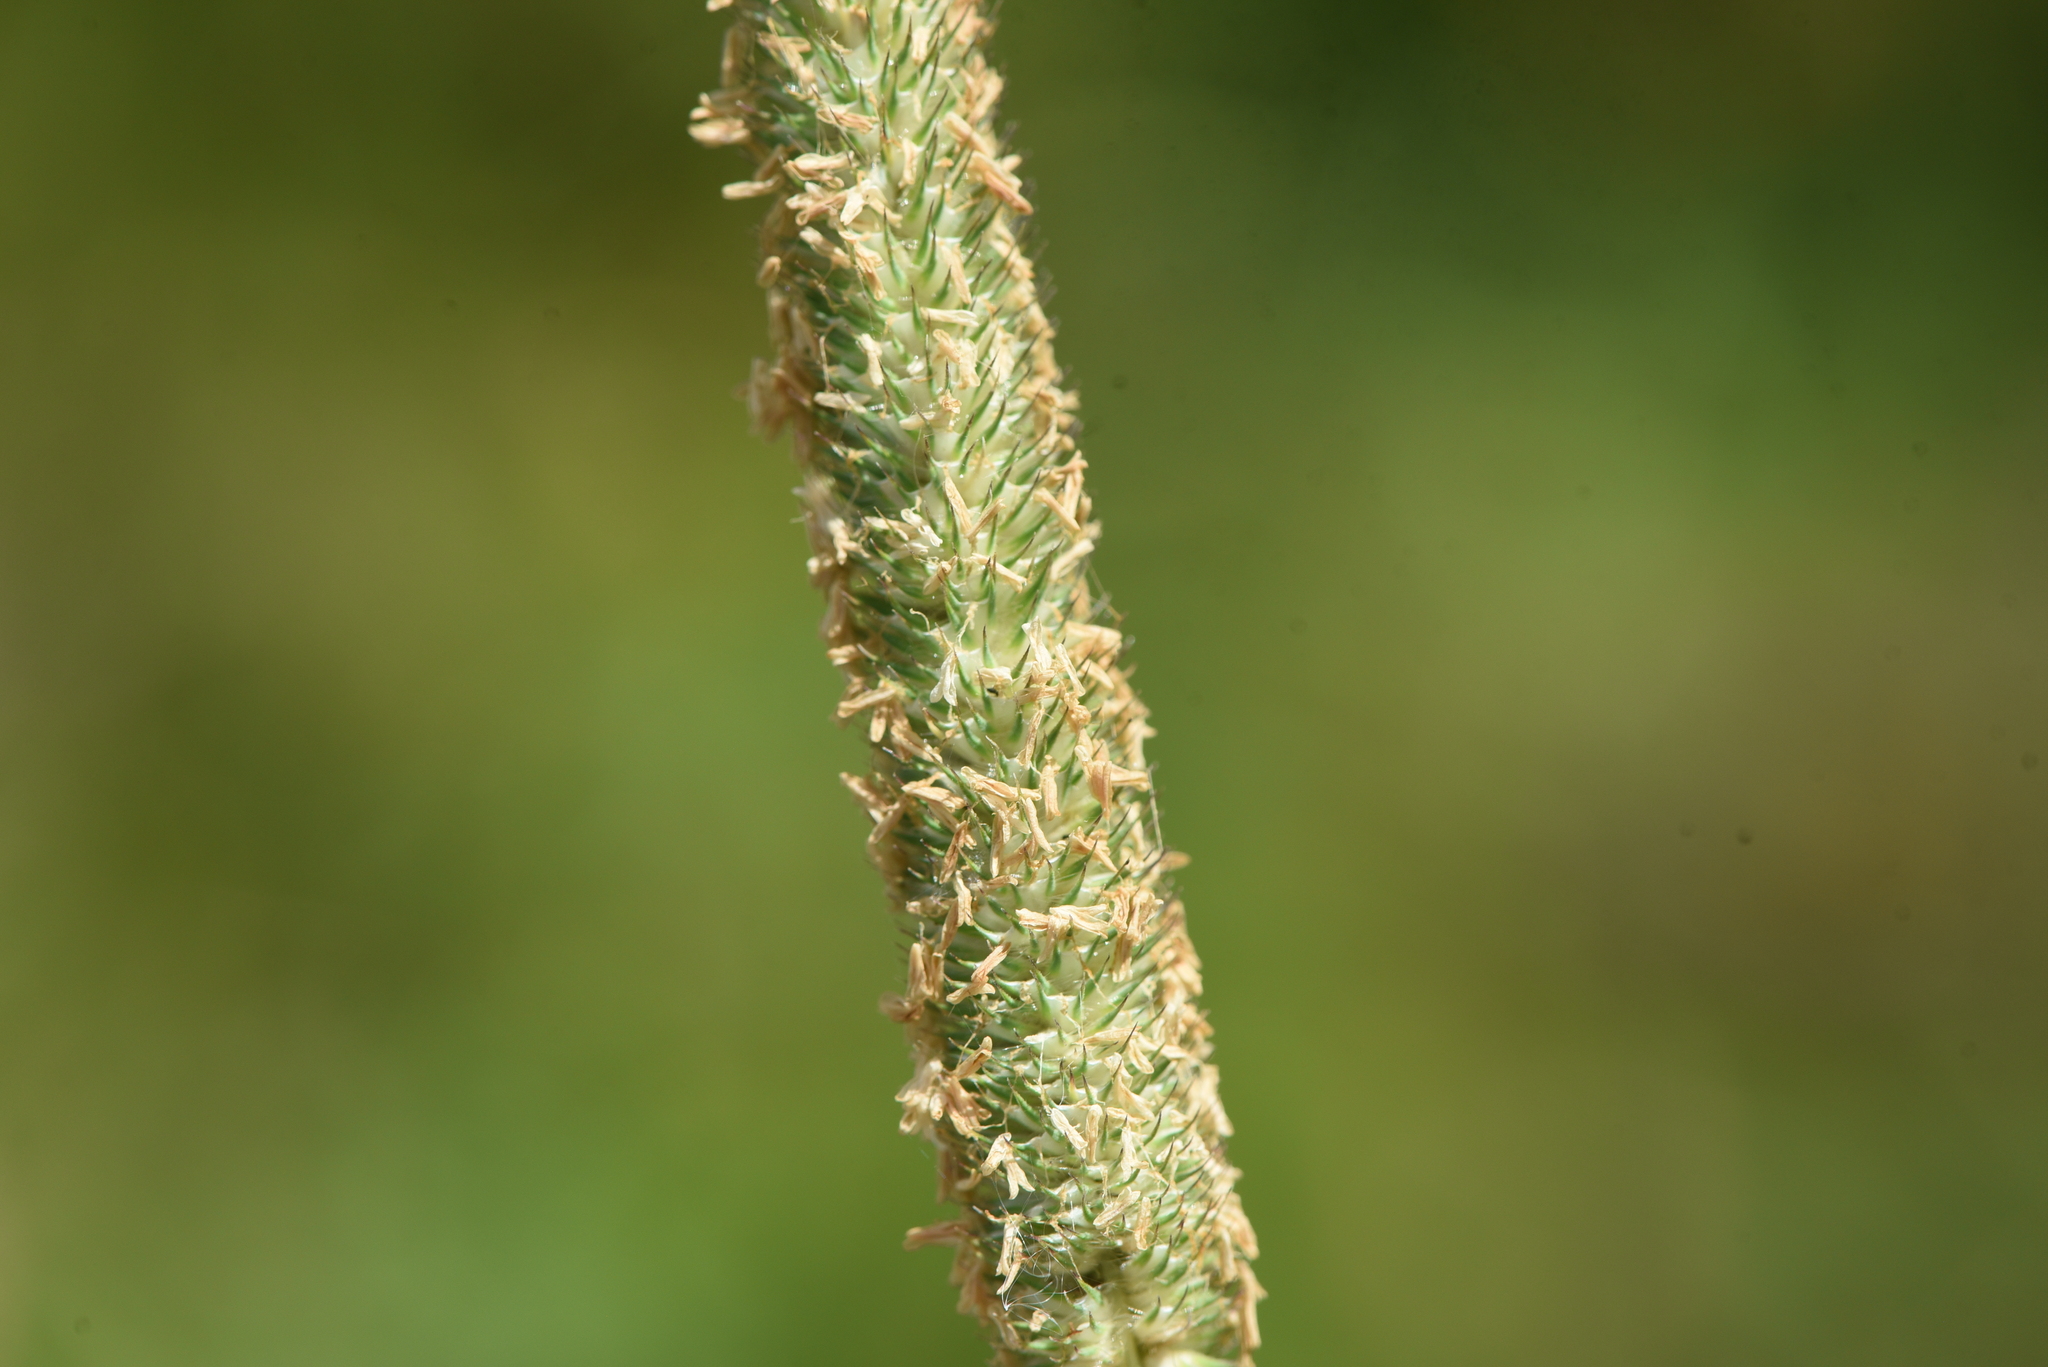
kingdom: Plantae
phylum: Tracheophyta
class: Liliopsida
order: Poales
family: Poaceae
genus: Phleum
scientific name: Phleum pratense
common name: Timothy grass
